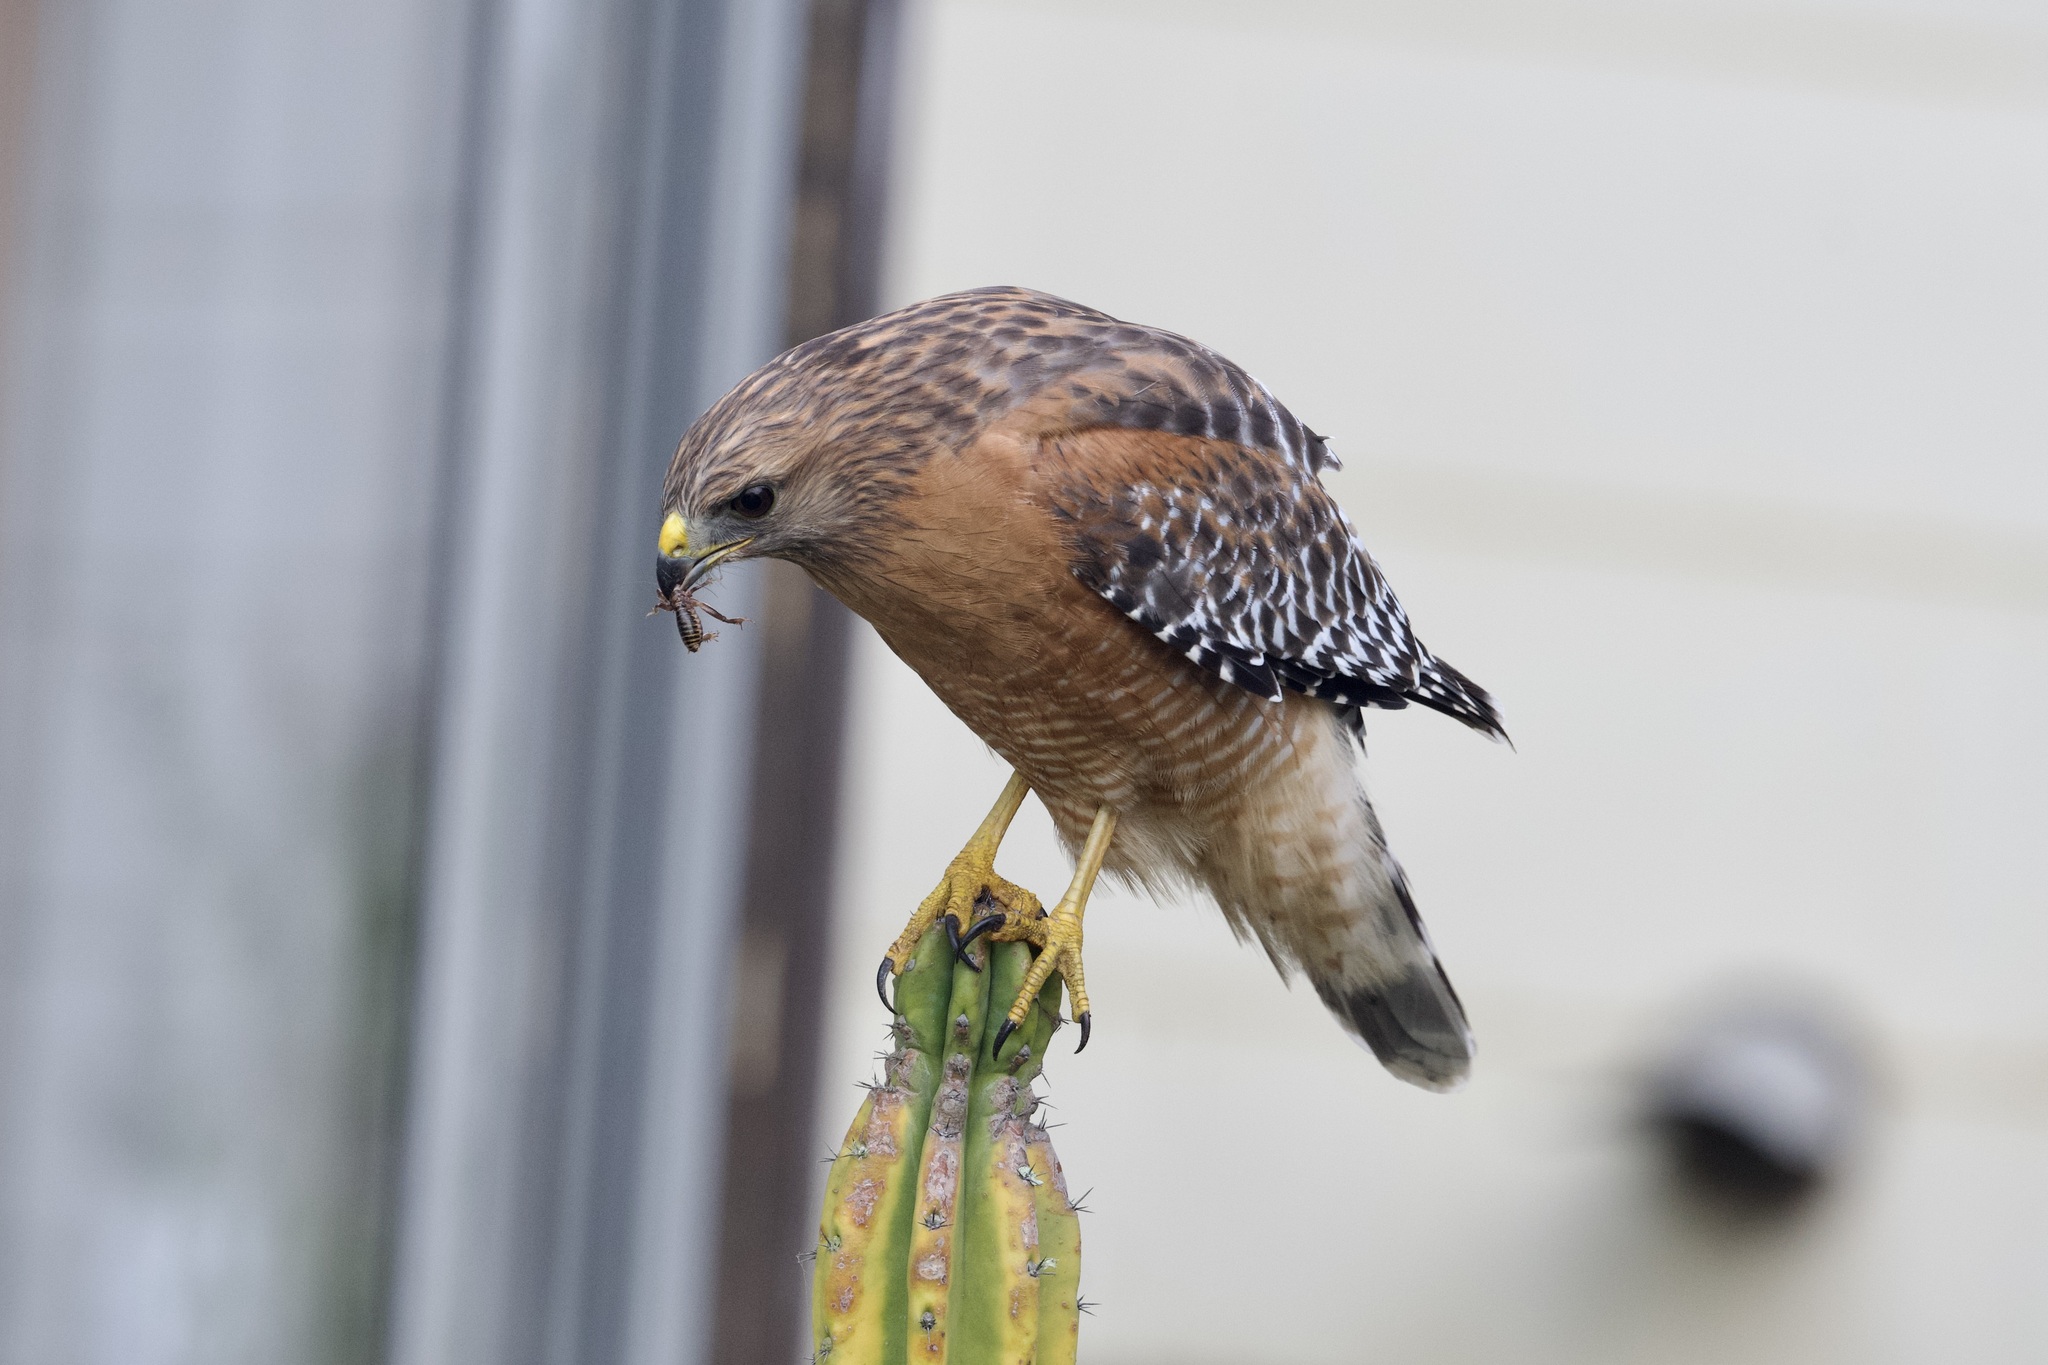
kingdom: Animalia
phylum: Chordata
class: Aves
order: Accipitriformes
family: Accipitridae
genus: Buteo
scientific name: Buteo lineatus
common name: Red-shouldered hawk
